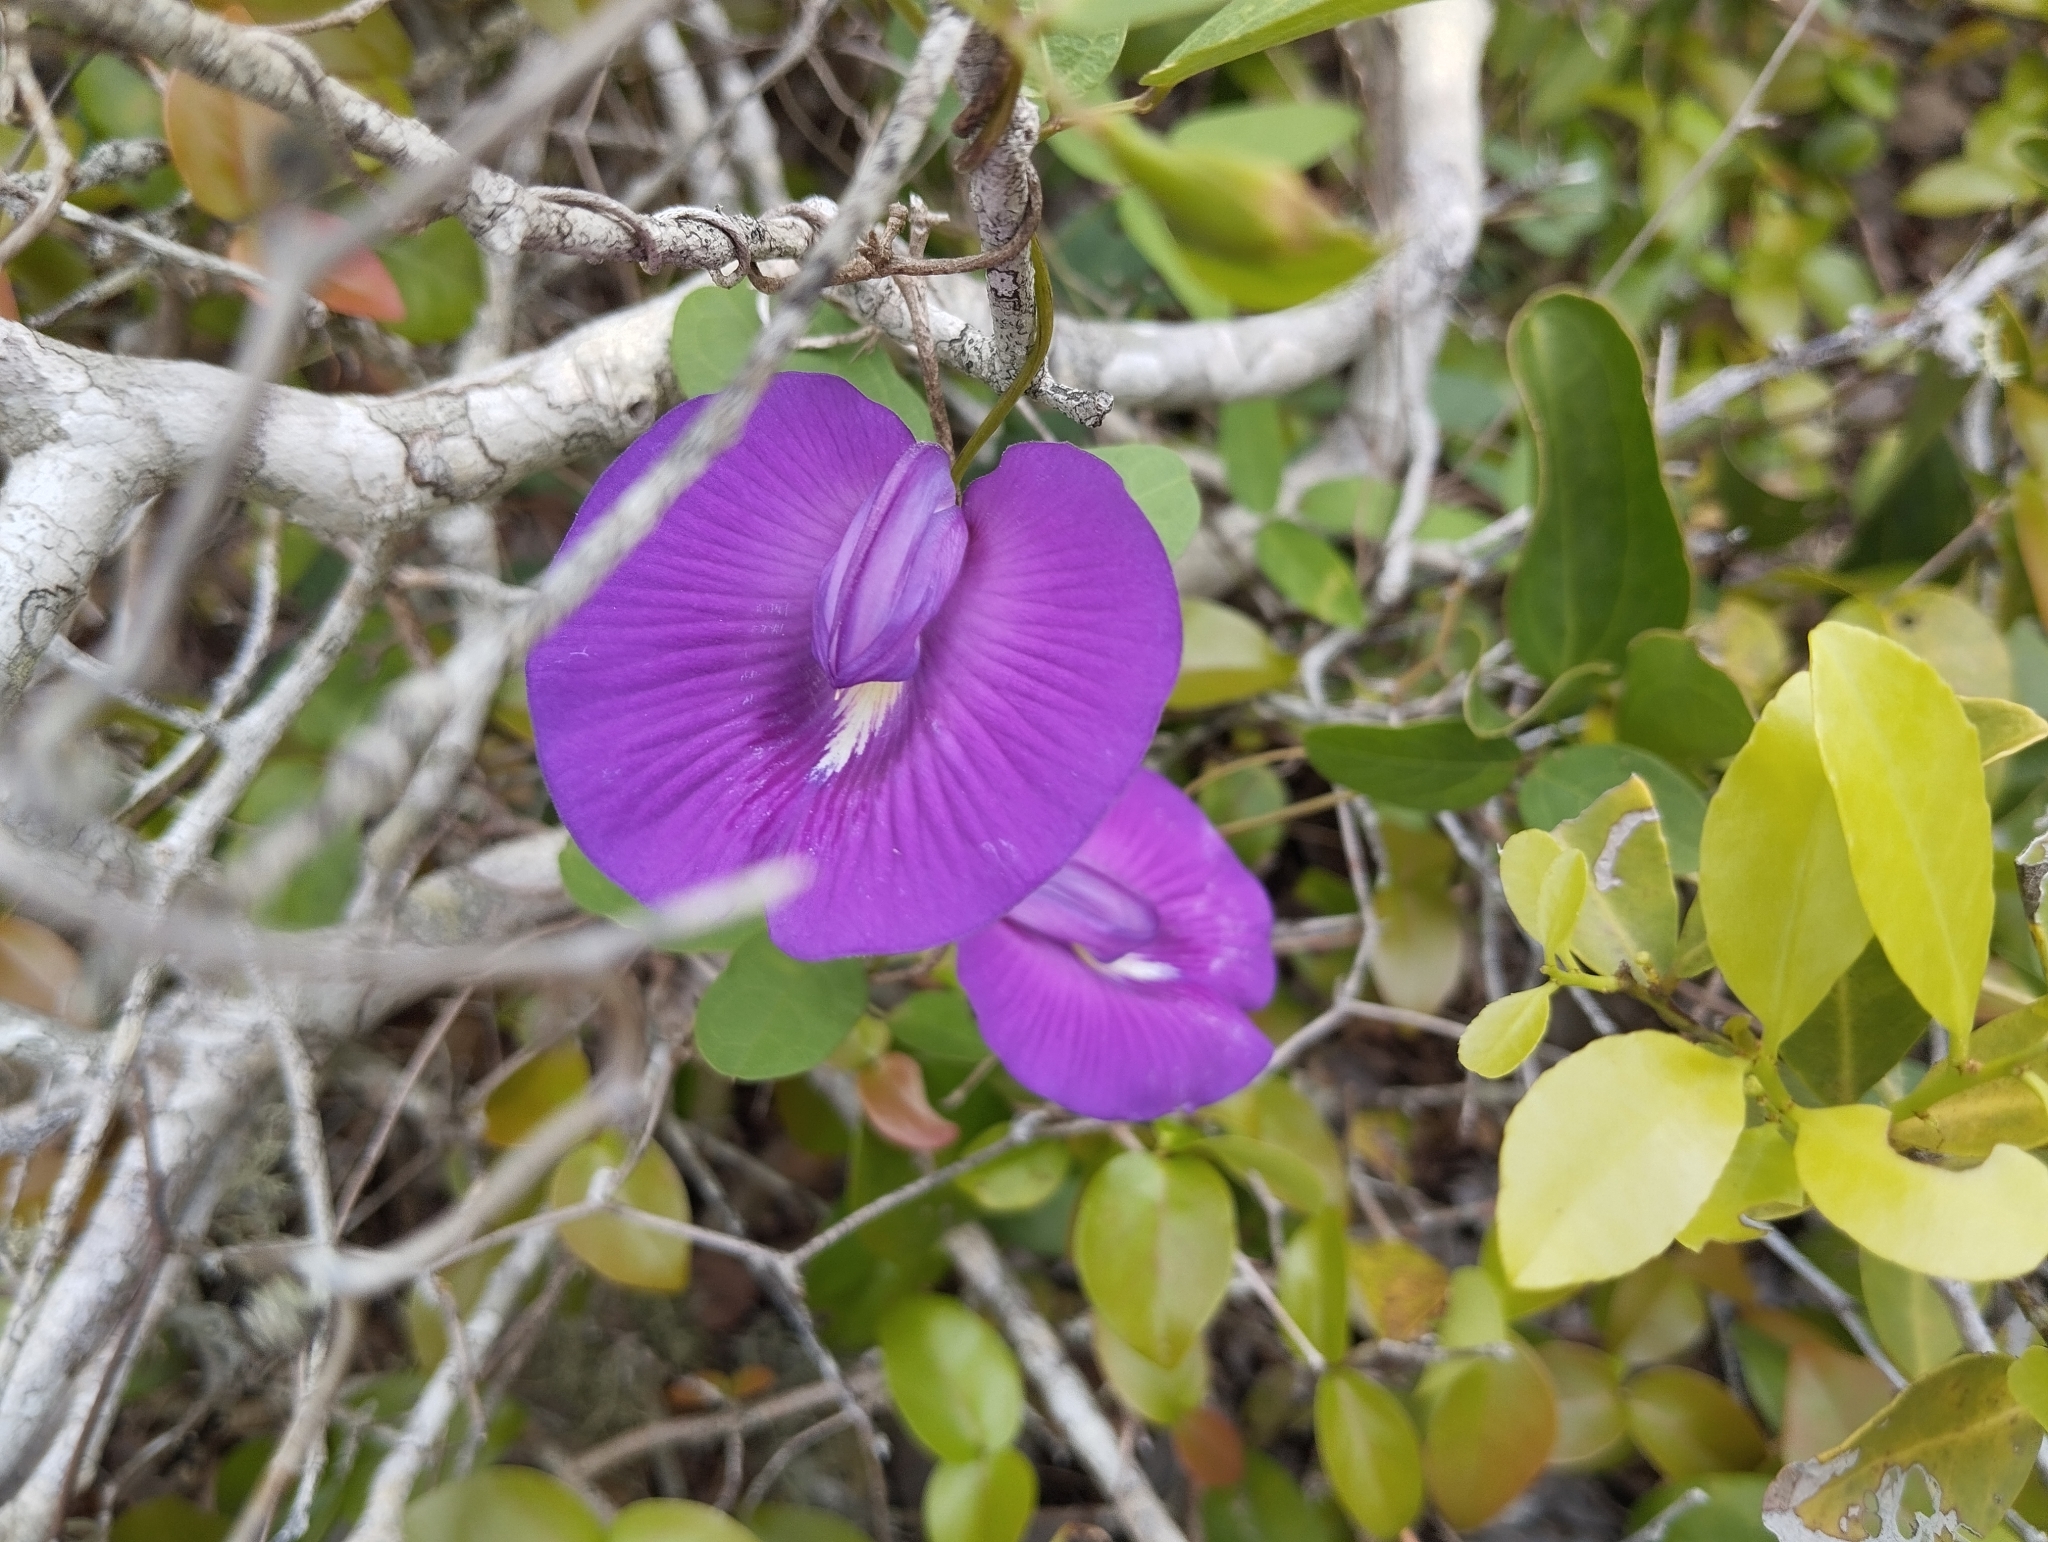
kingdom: Plantae
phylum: Tracheophyta
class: Magnoliopsida
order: Fabales
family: Fabaceae
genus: Centrosema
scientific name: Centrosema brasilianum
